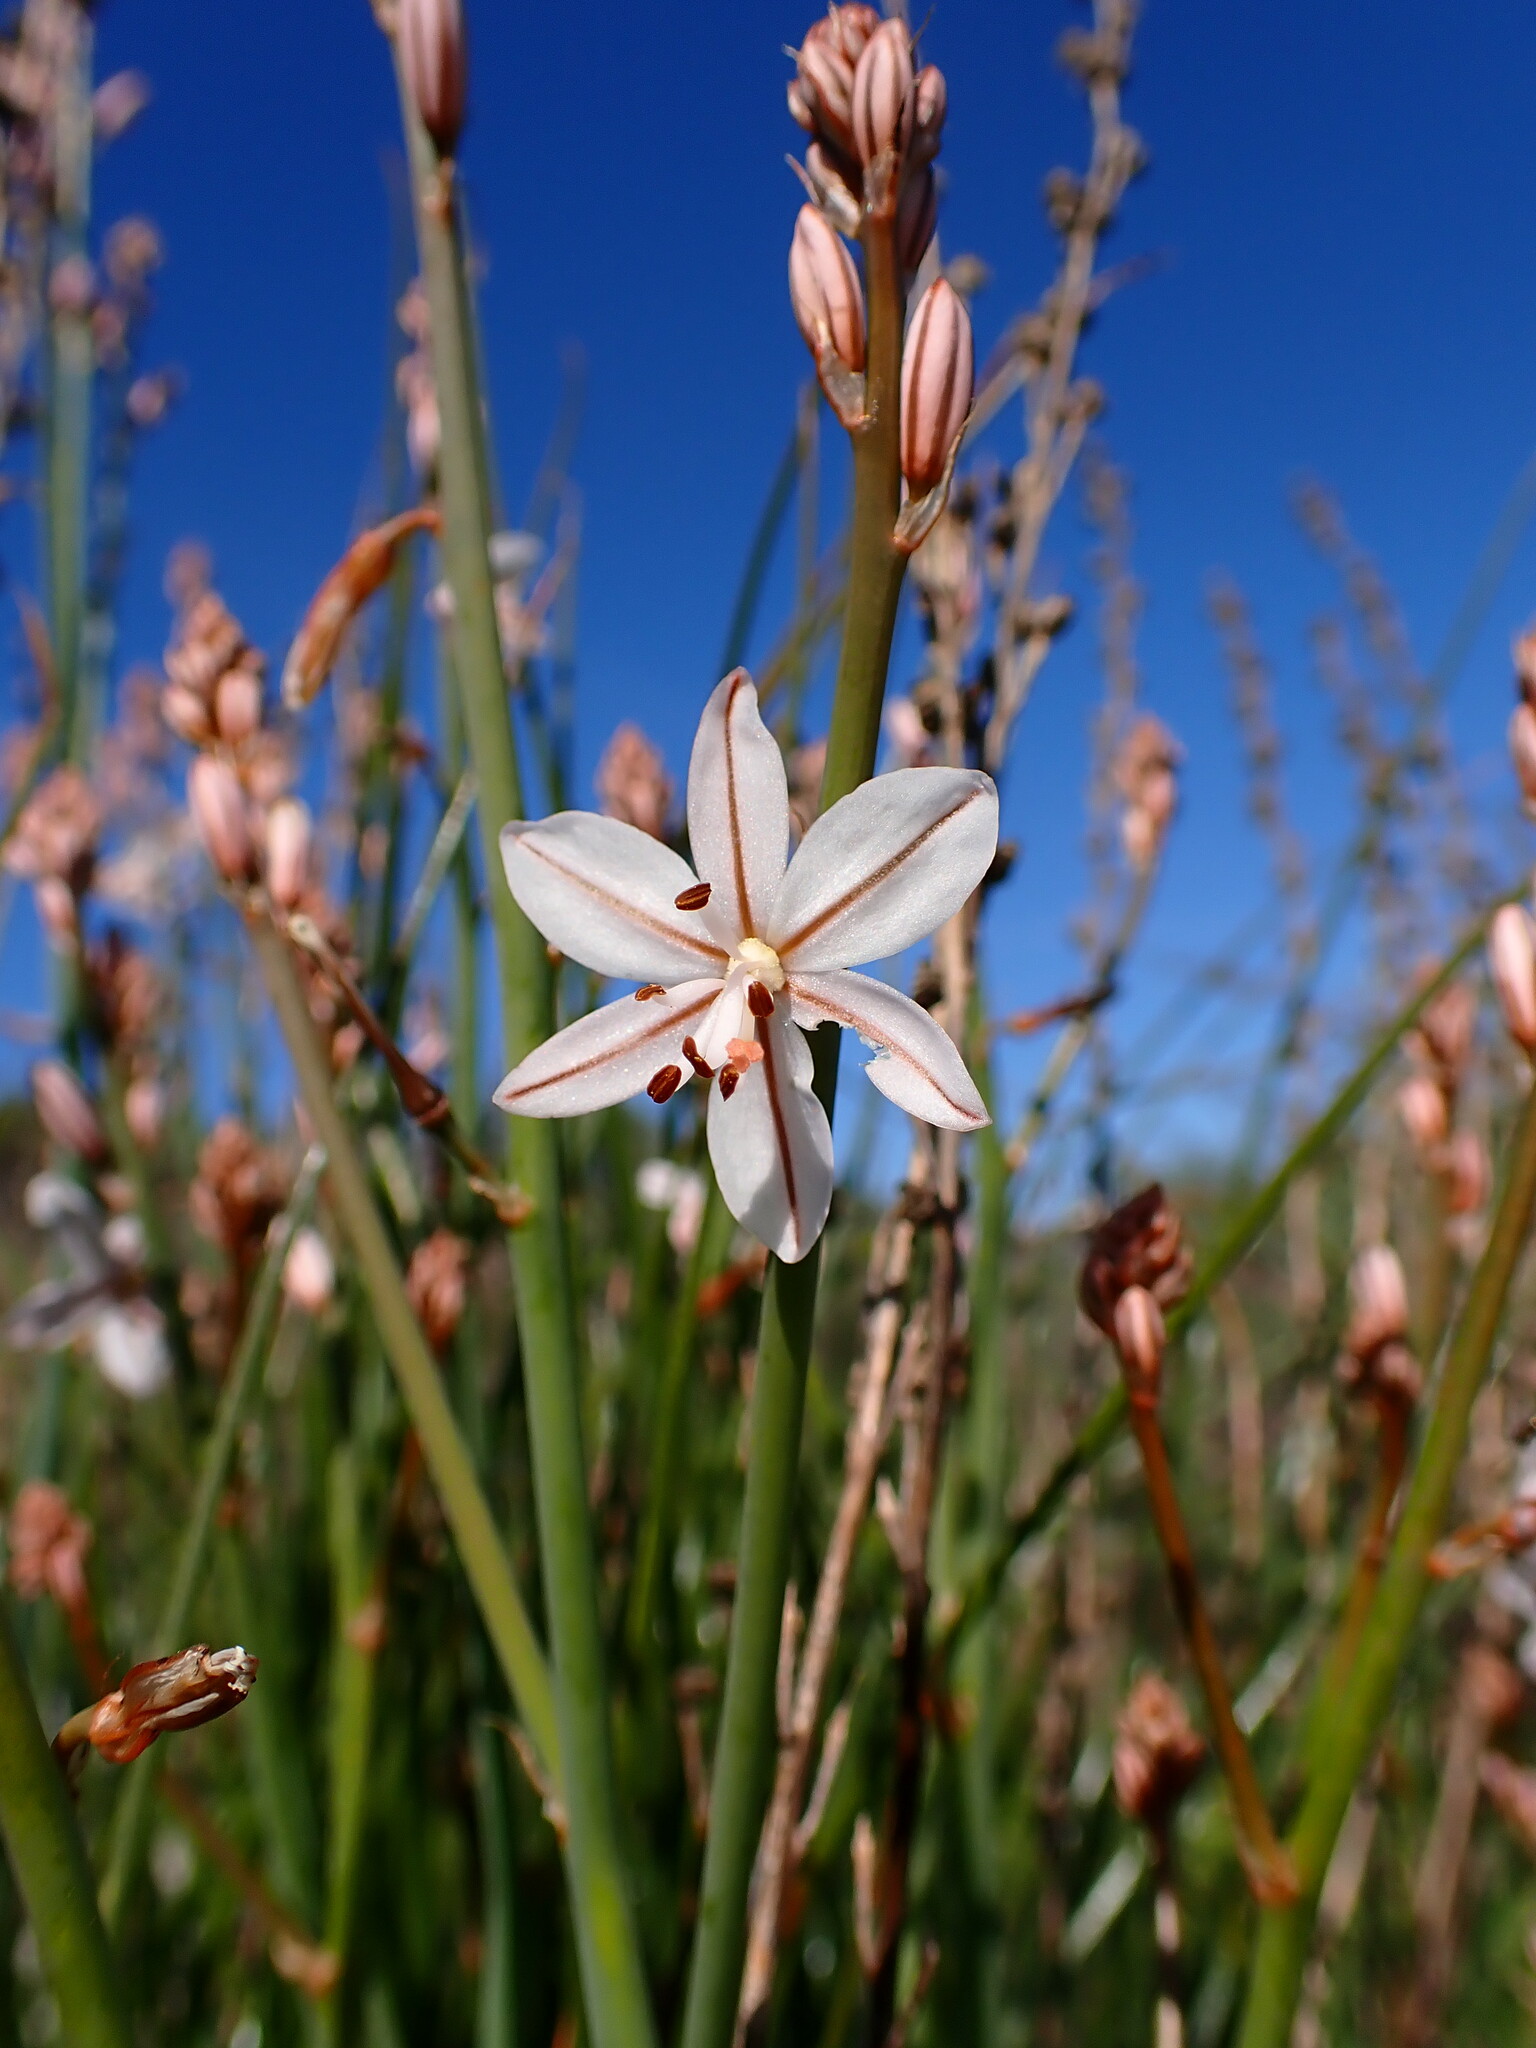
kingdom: Plantae
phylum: Tracheophyta
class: Liliopsida
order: Asparagales
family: Asphodelaceae
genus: Asphodelus
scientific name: Asphodelus fistulosus
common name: Onionweed
